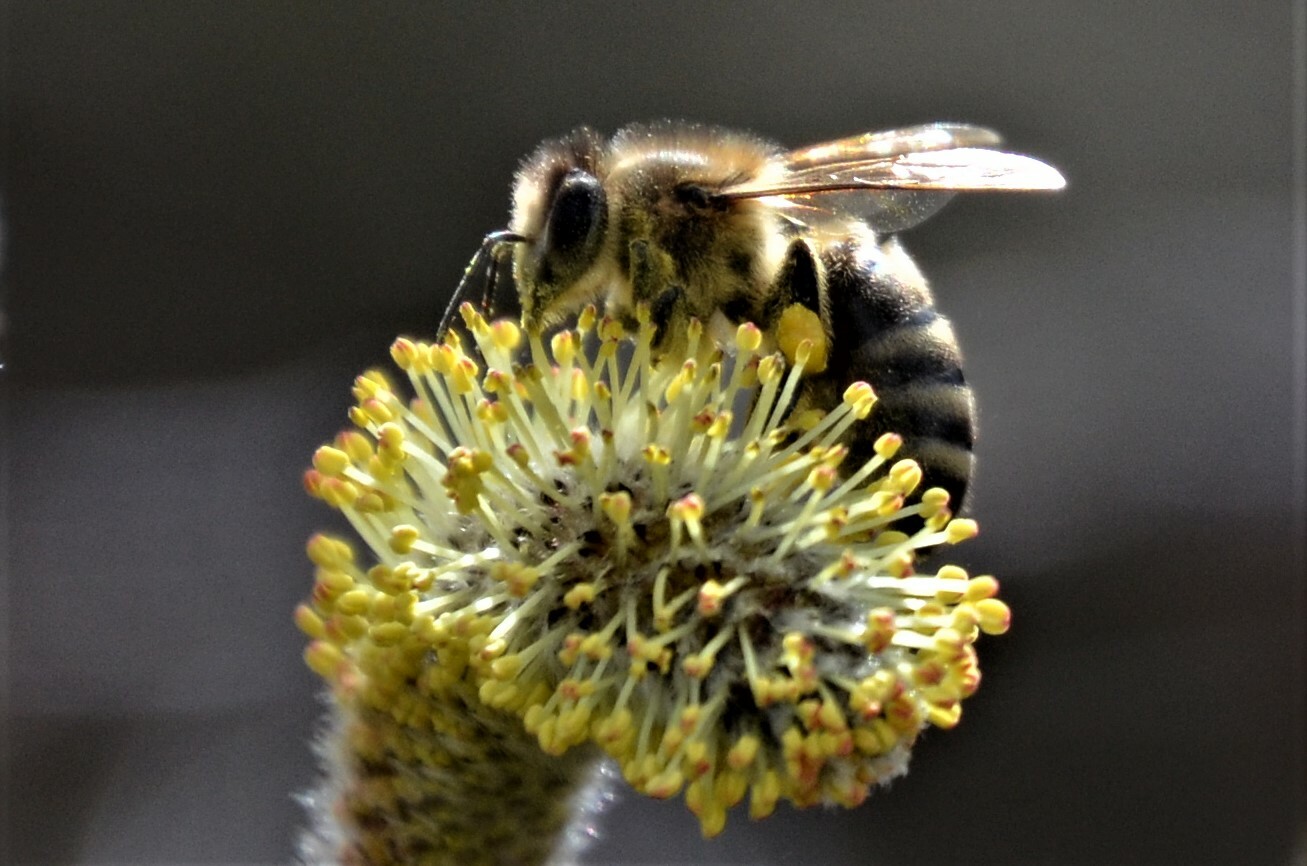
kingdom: Animalia
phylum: Arthropoda
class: Insecta
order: Hymenoptera
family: Apidae
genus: Apis
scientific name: Apis mellifera
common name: Honey bee
